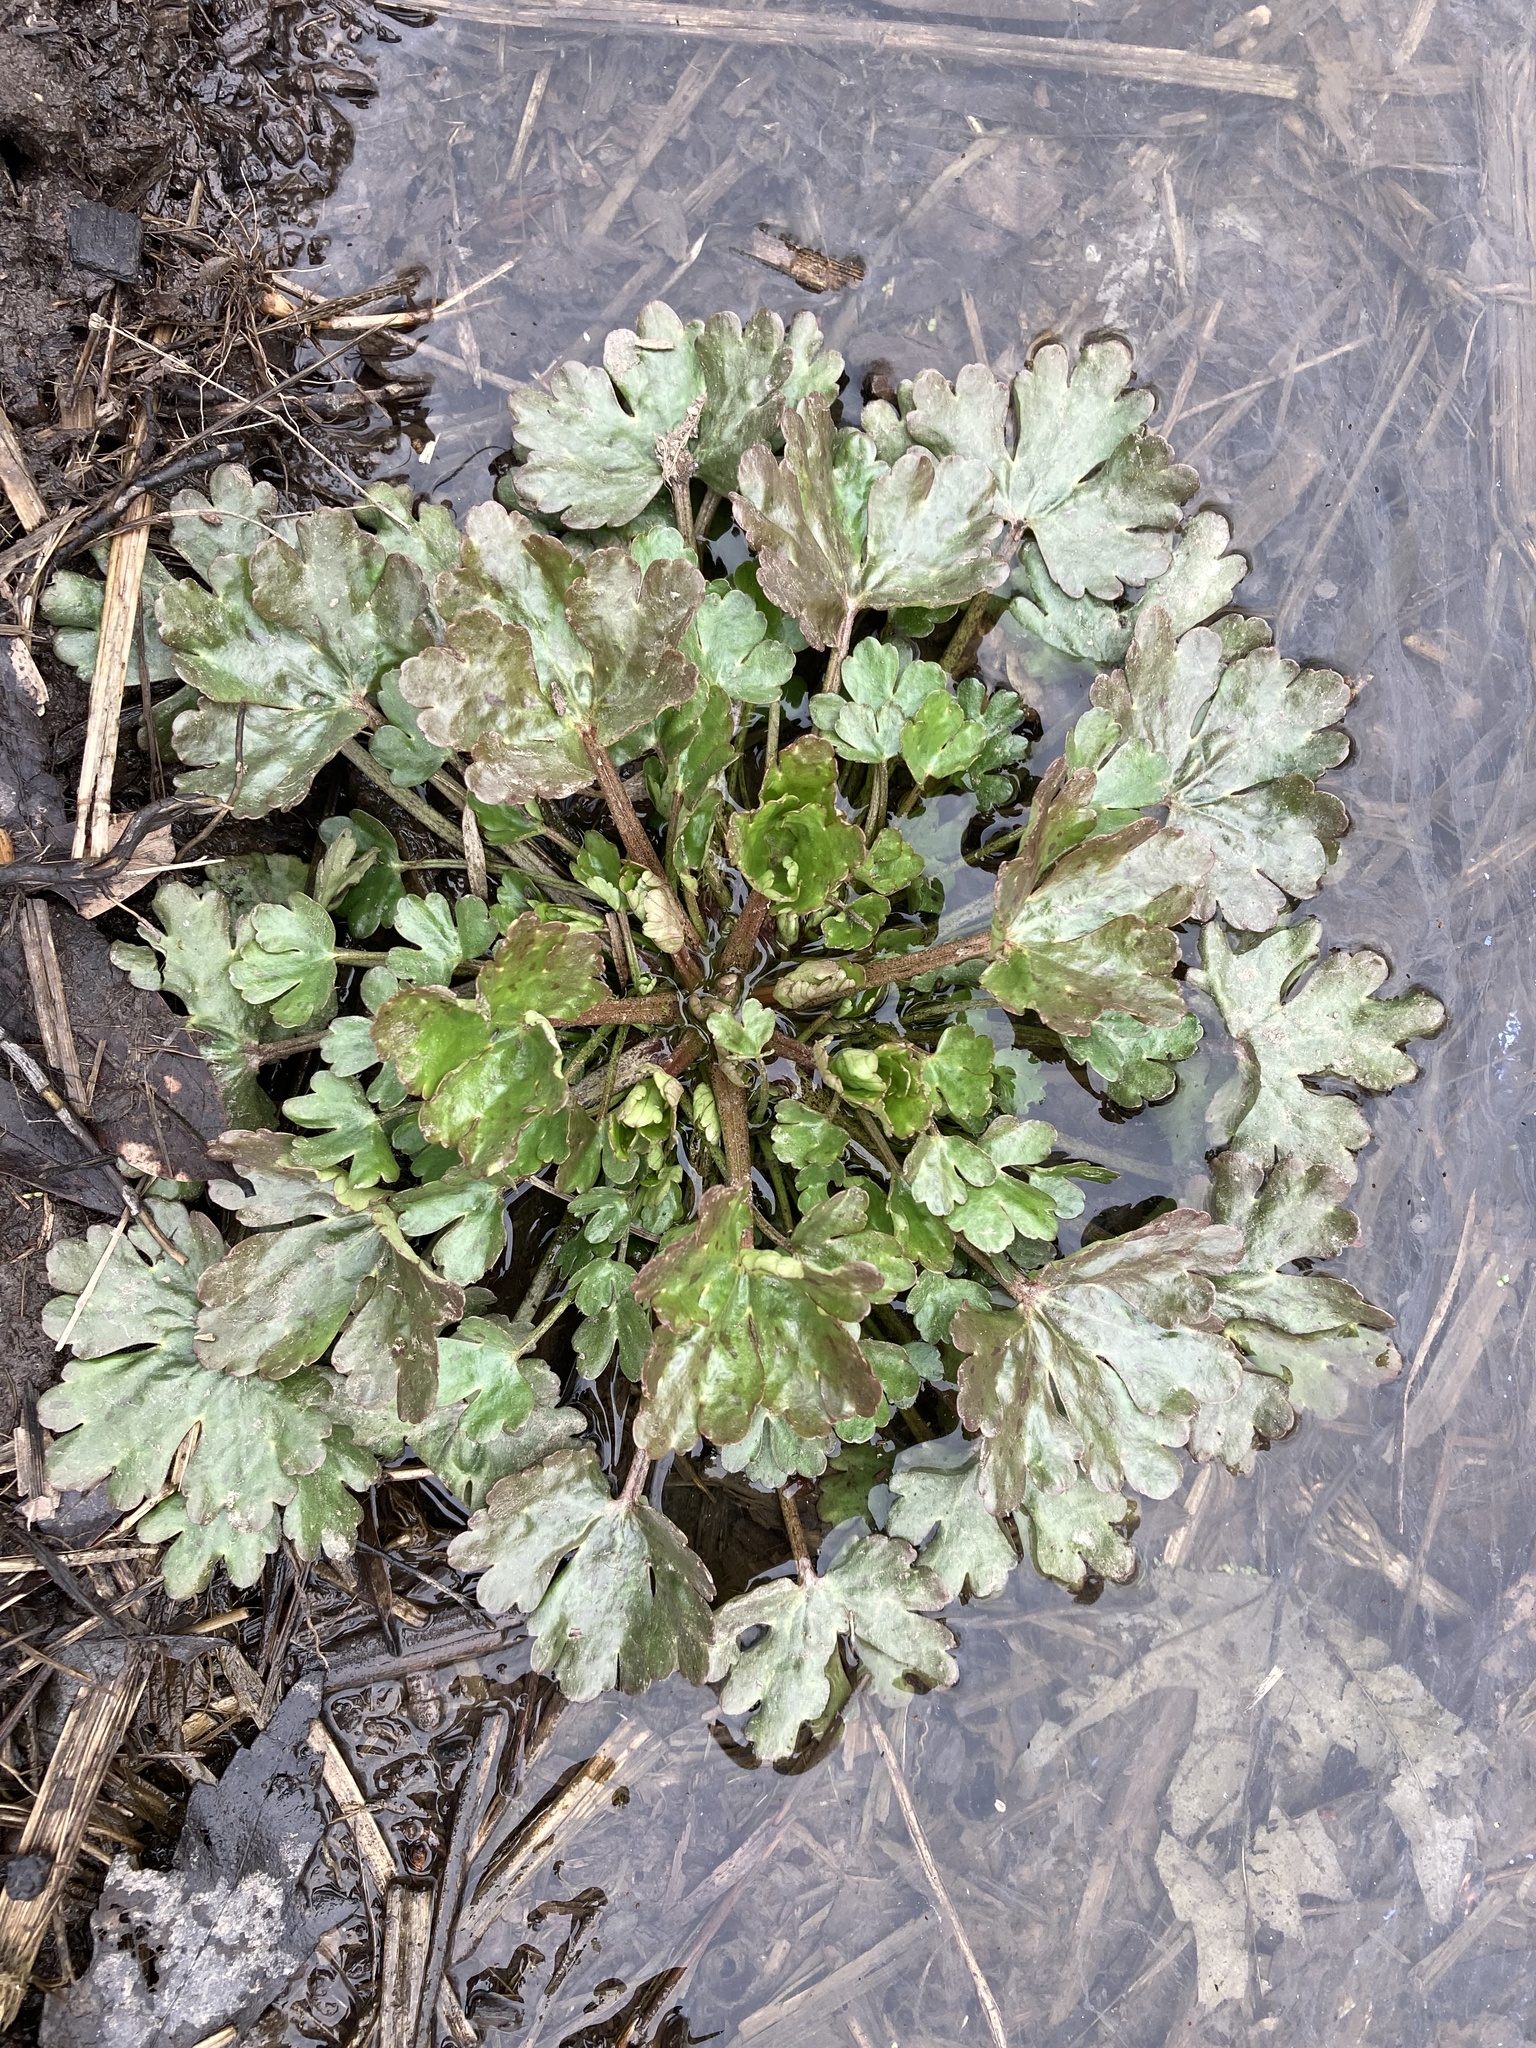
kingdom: Plantae
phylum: Tracheophyta
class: Magnoliopsida
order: Ranunculales
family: Ranunculaceae
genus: Ranunculus
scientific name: Ranunculus sceleratus
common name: Celery-leaved buttercup
